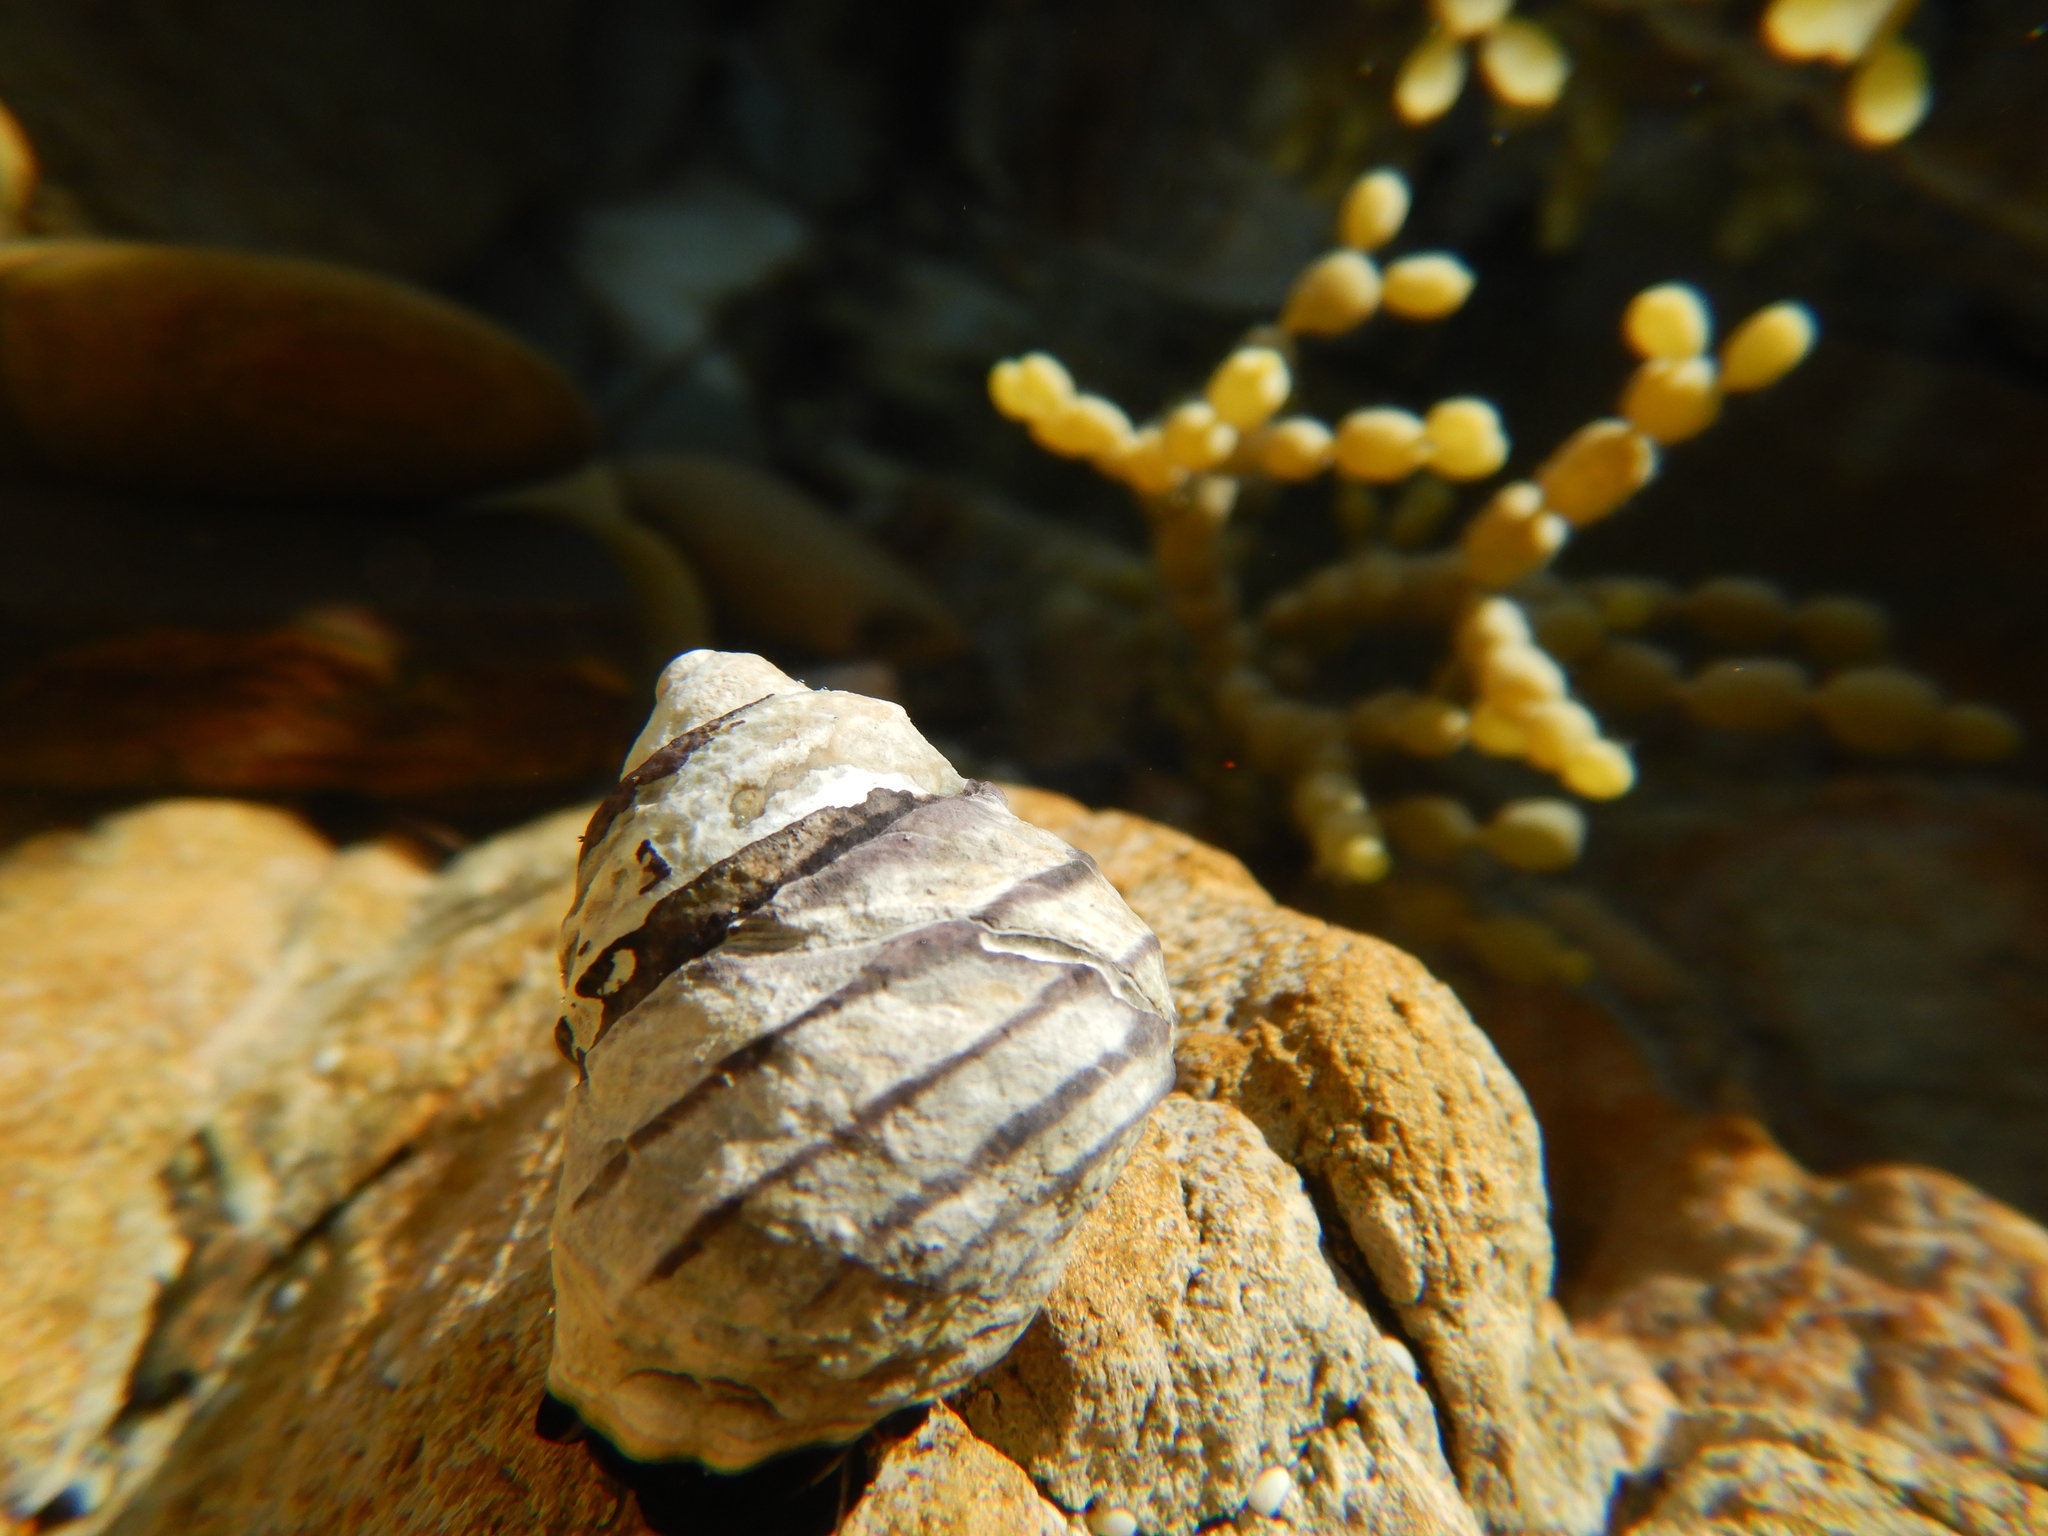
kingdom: Animalia
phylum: Mollusca
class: Gastropoda
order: Trochida
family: Trochidae
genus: Austrocochlea
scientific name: Austrocochlea constricta
